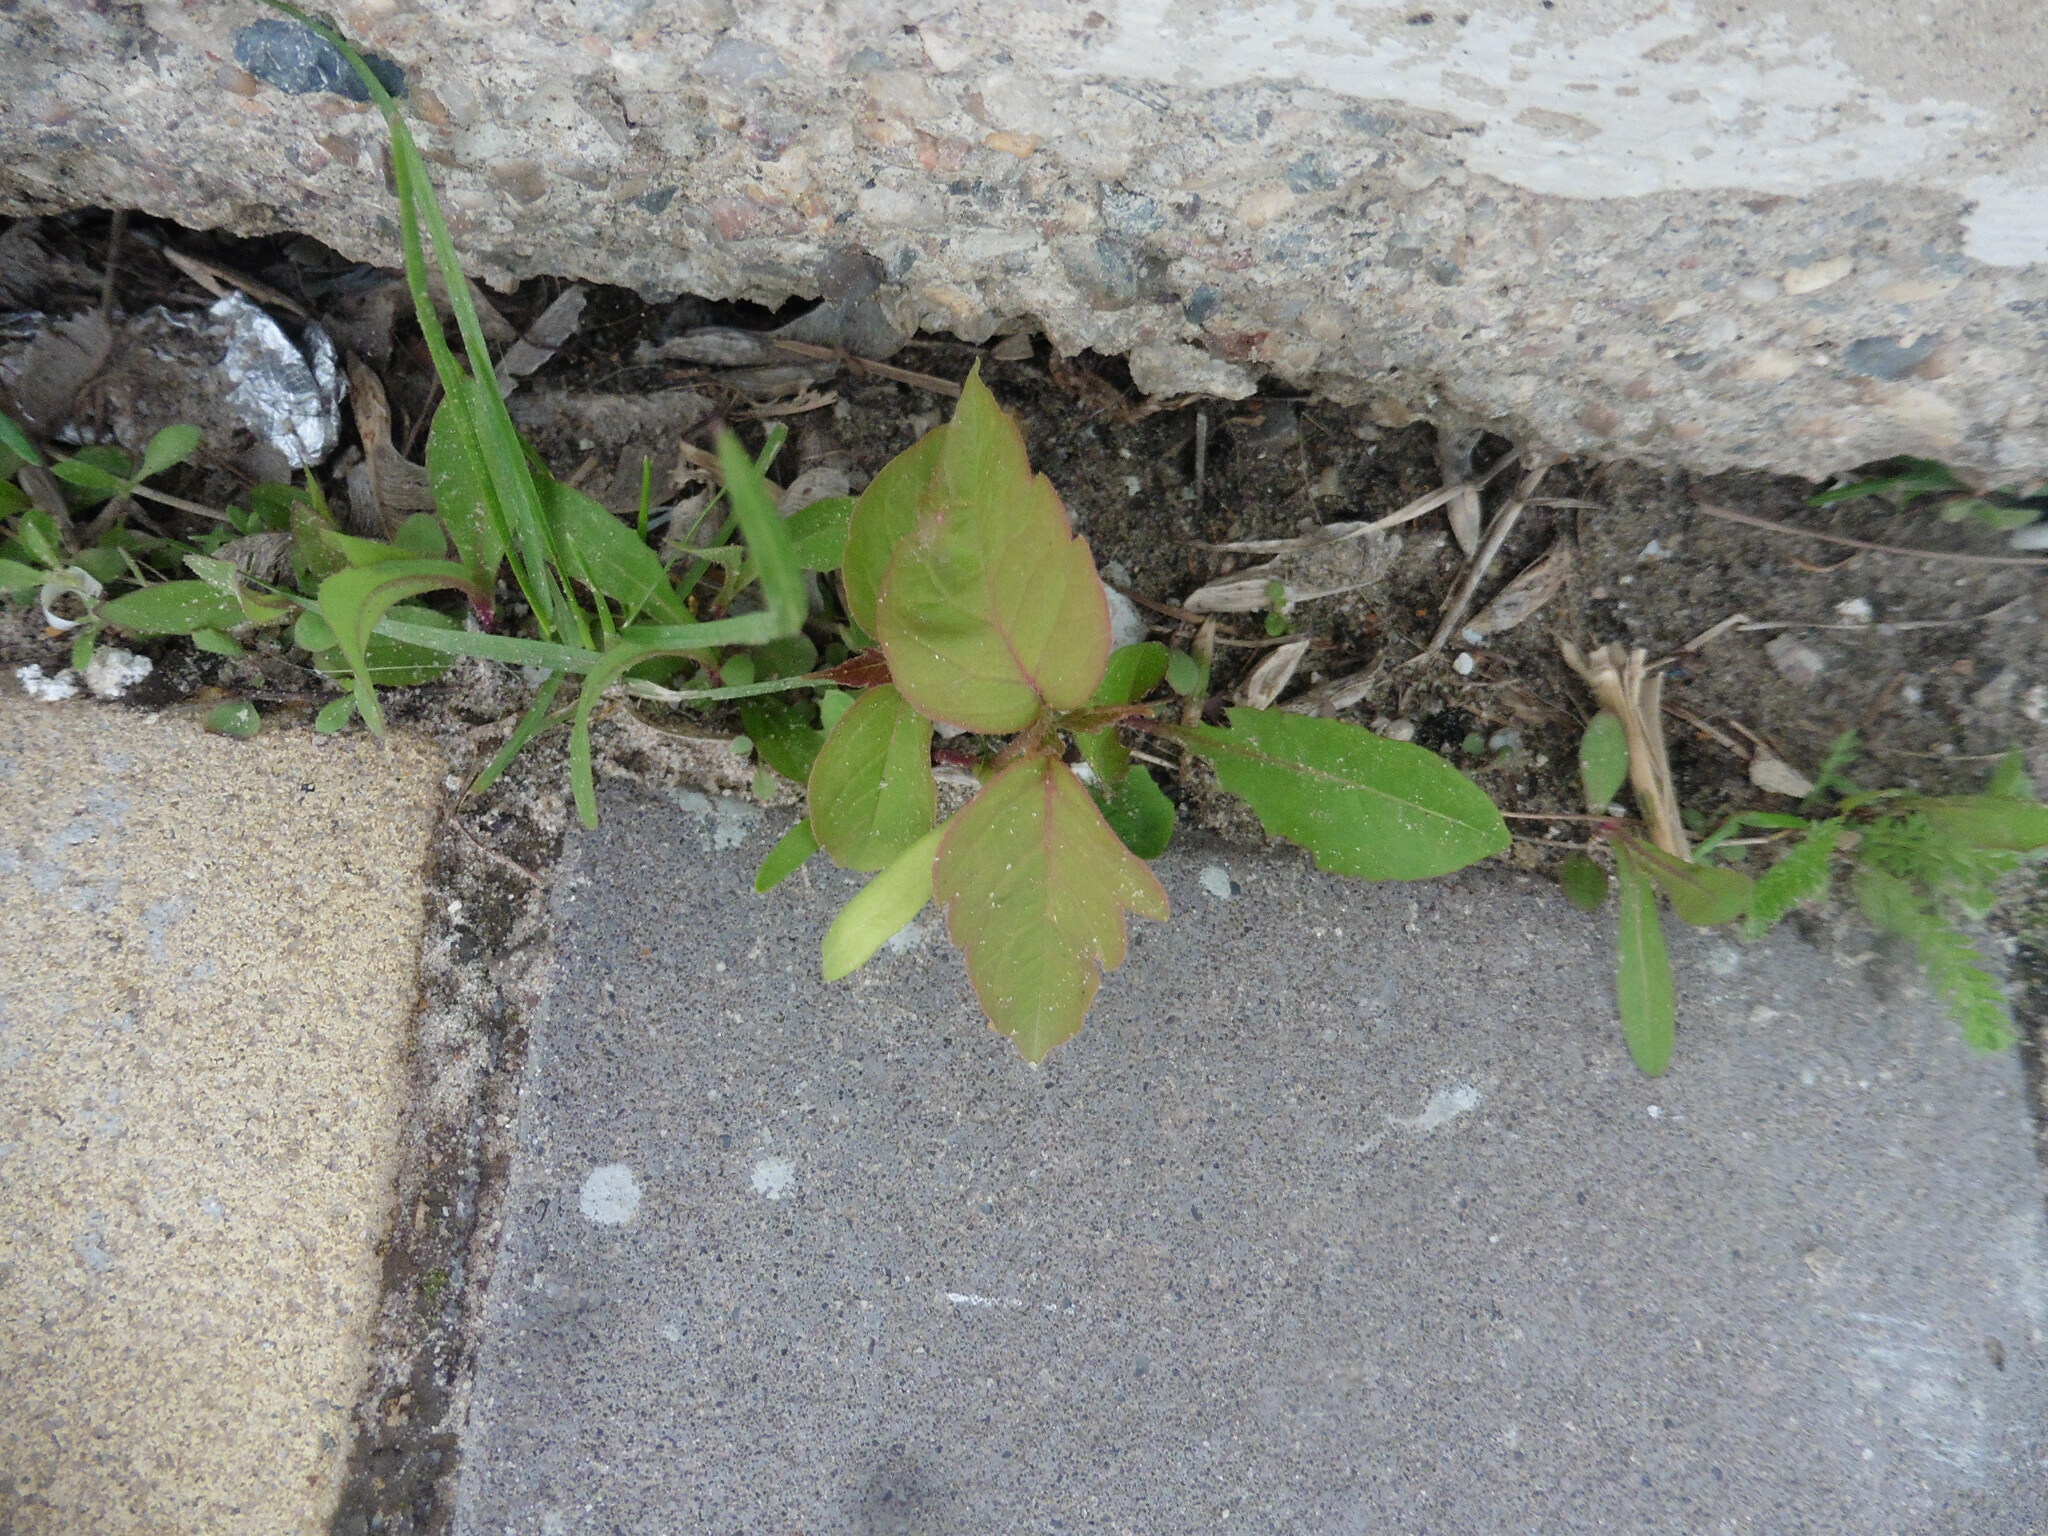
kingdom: Plantae
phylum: Tracheophyta
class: Magnoliopsida
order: Sapindales
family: Sapindaceae
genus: Acer
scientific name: Acer negundo
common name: Ashleaf maple
